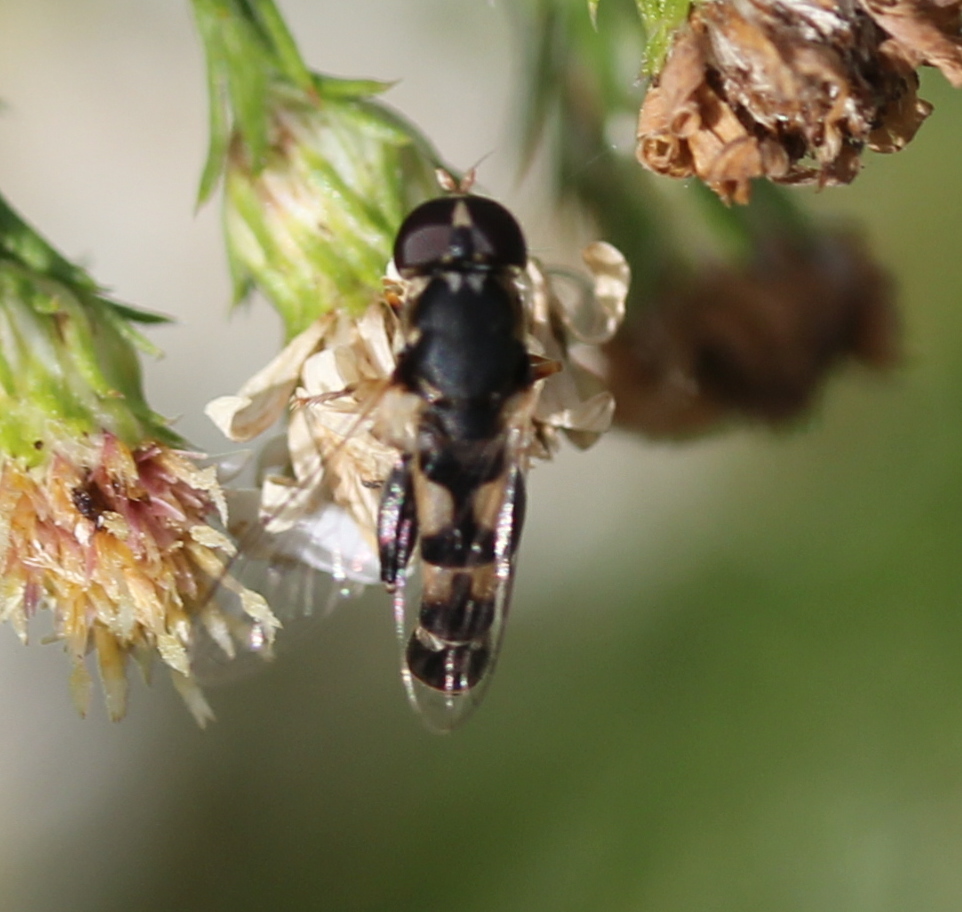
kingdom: Animalia
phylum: Arthropoda
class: Insecta
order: Diptera
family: Syrphidae
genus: Syritta
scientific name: Syritta pipiens
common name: Hover fly
